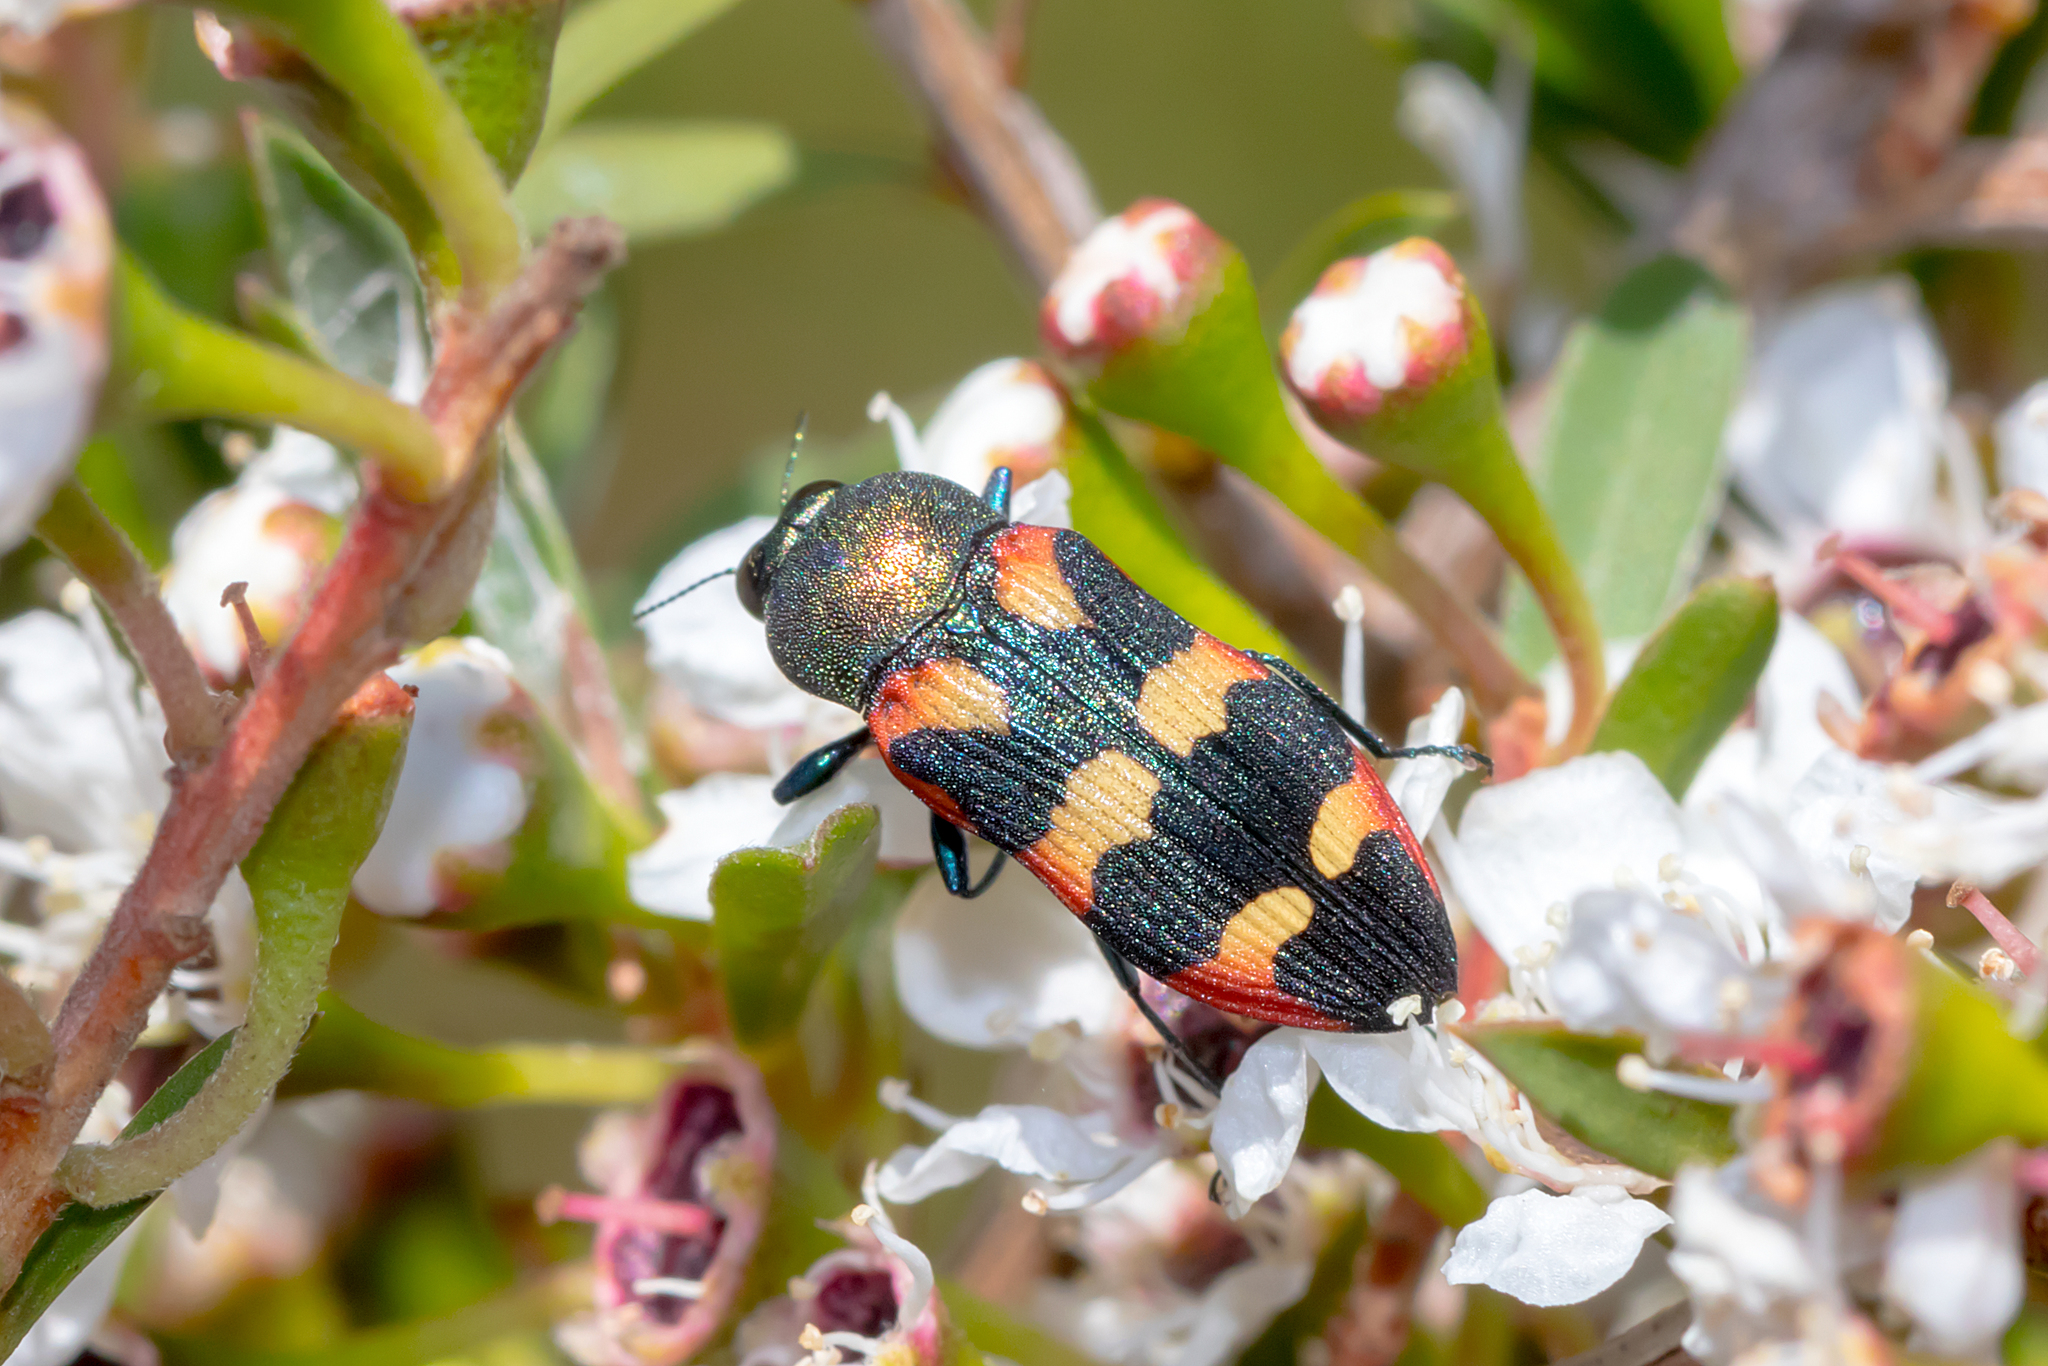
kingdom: Animalia
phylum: Arthropoda
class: Insecta
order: Coleoptera
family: Buprestidae
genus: Castiarina
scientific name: Castiarina sexplagiata
